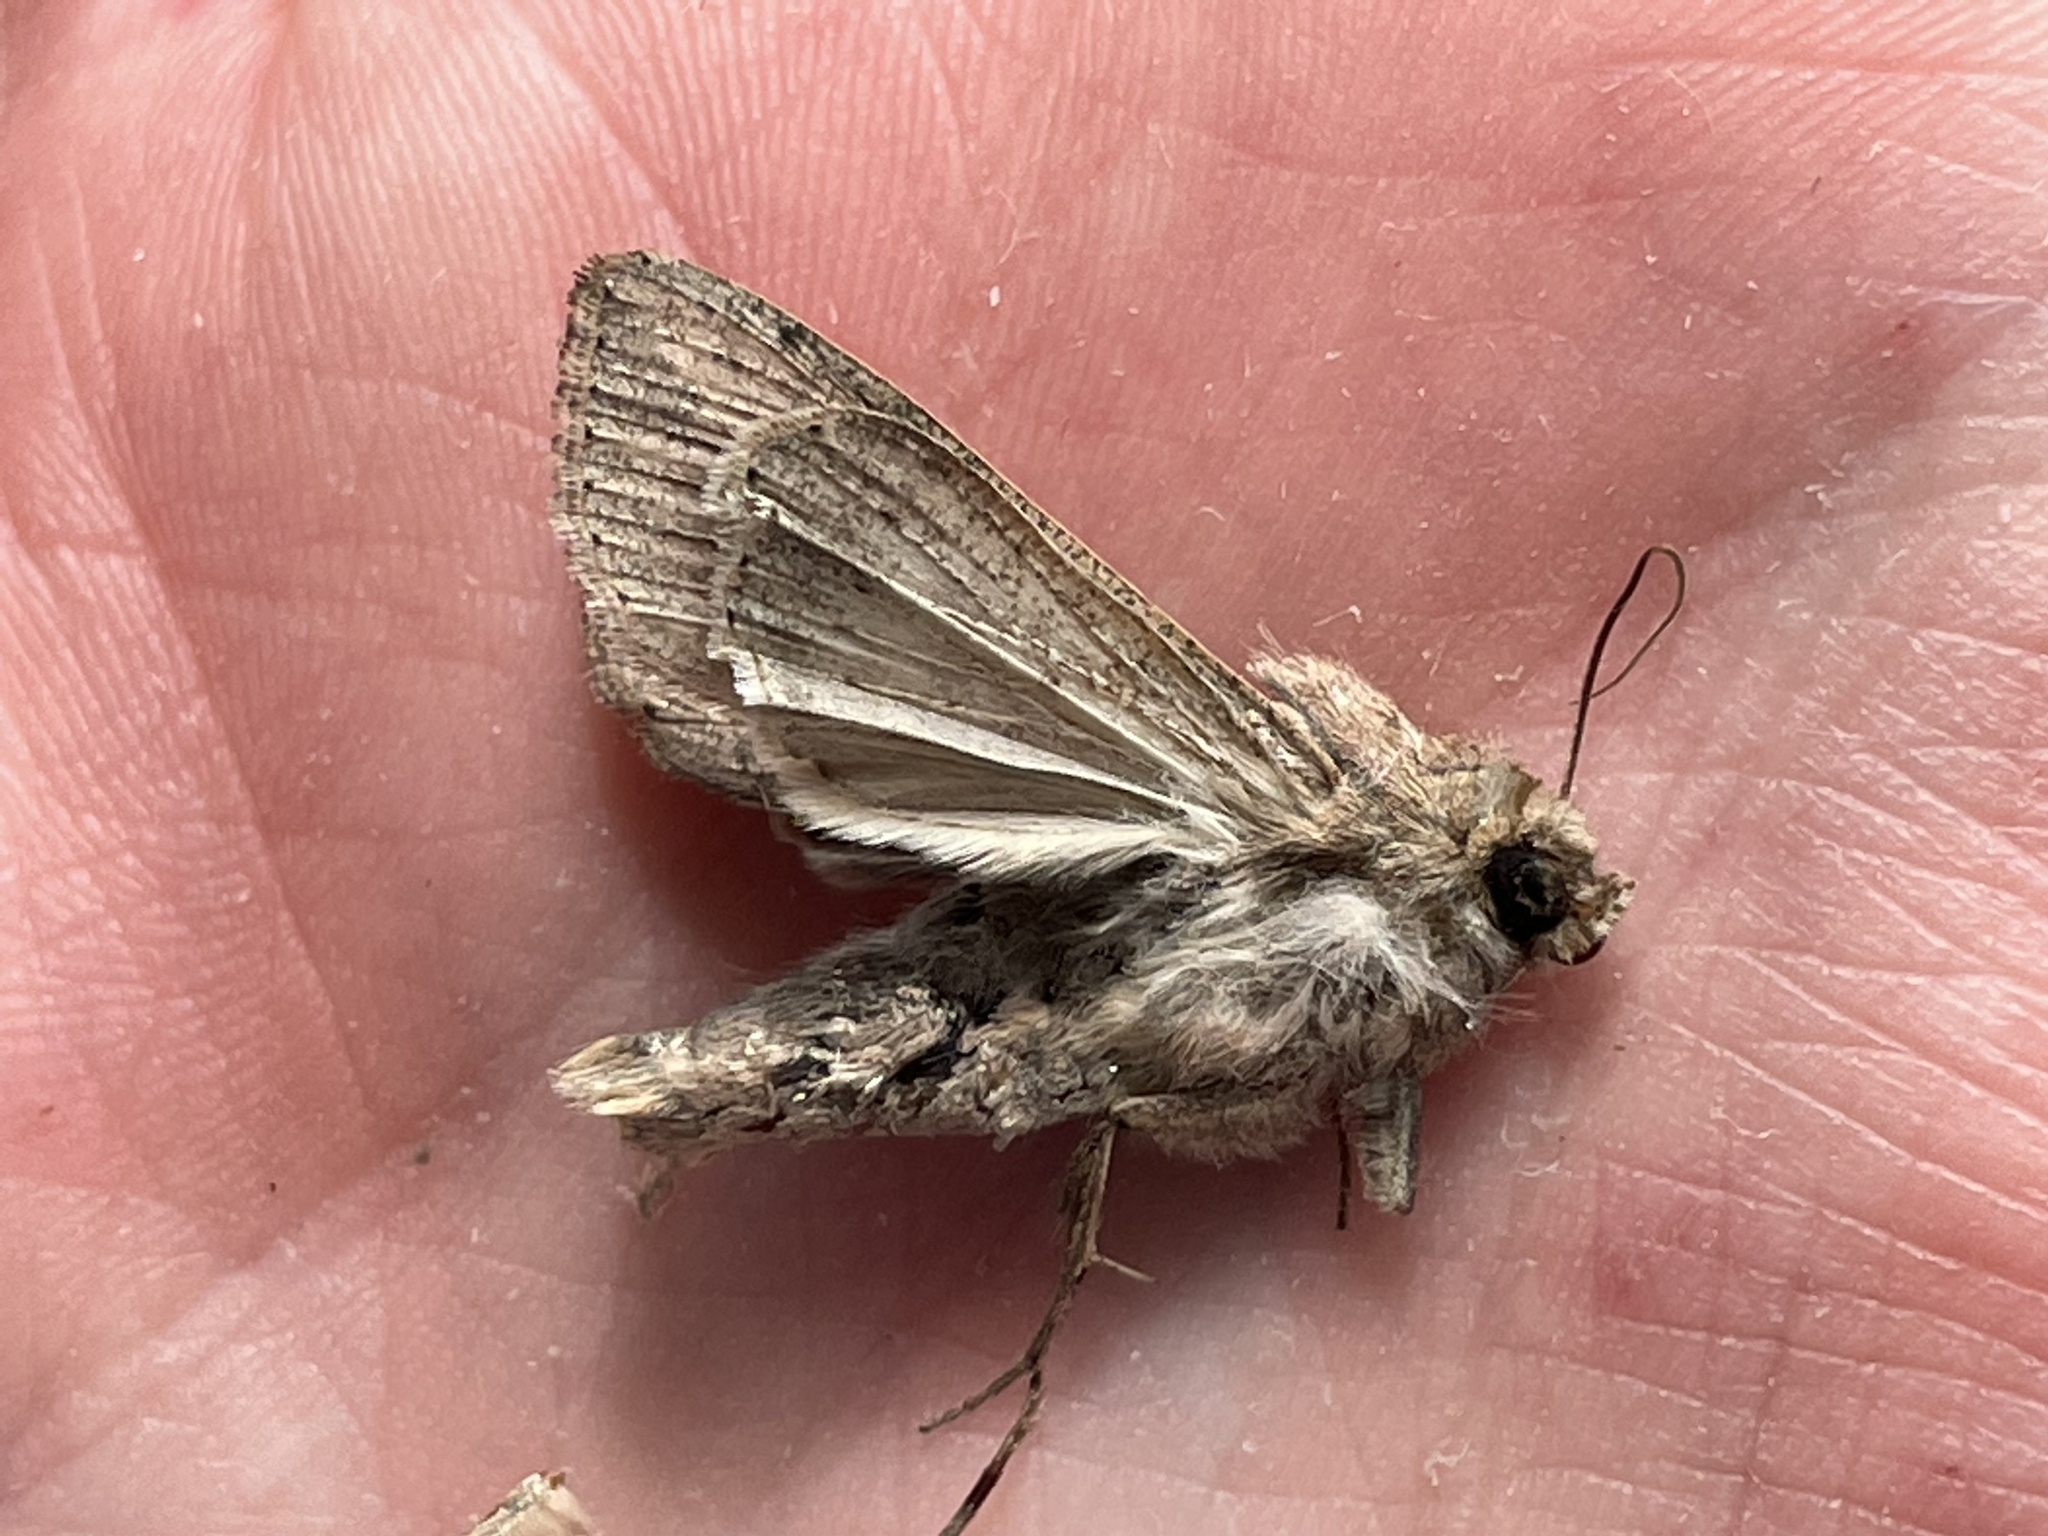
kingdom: Animalia
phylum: Arthropoda
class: Insecta
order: Lepidoptera
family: Noctuidae
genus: Mythimna
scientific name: Mythimna unipuncta
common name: White-speck
